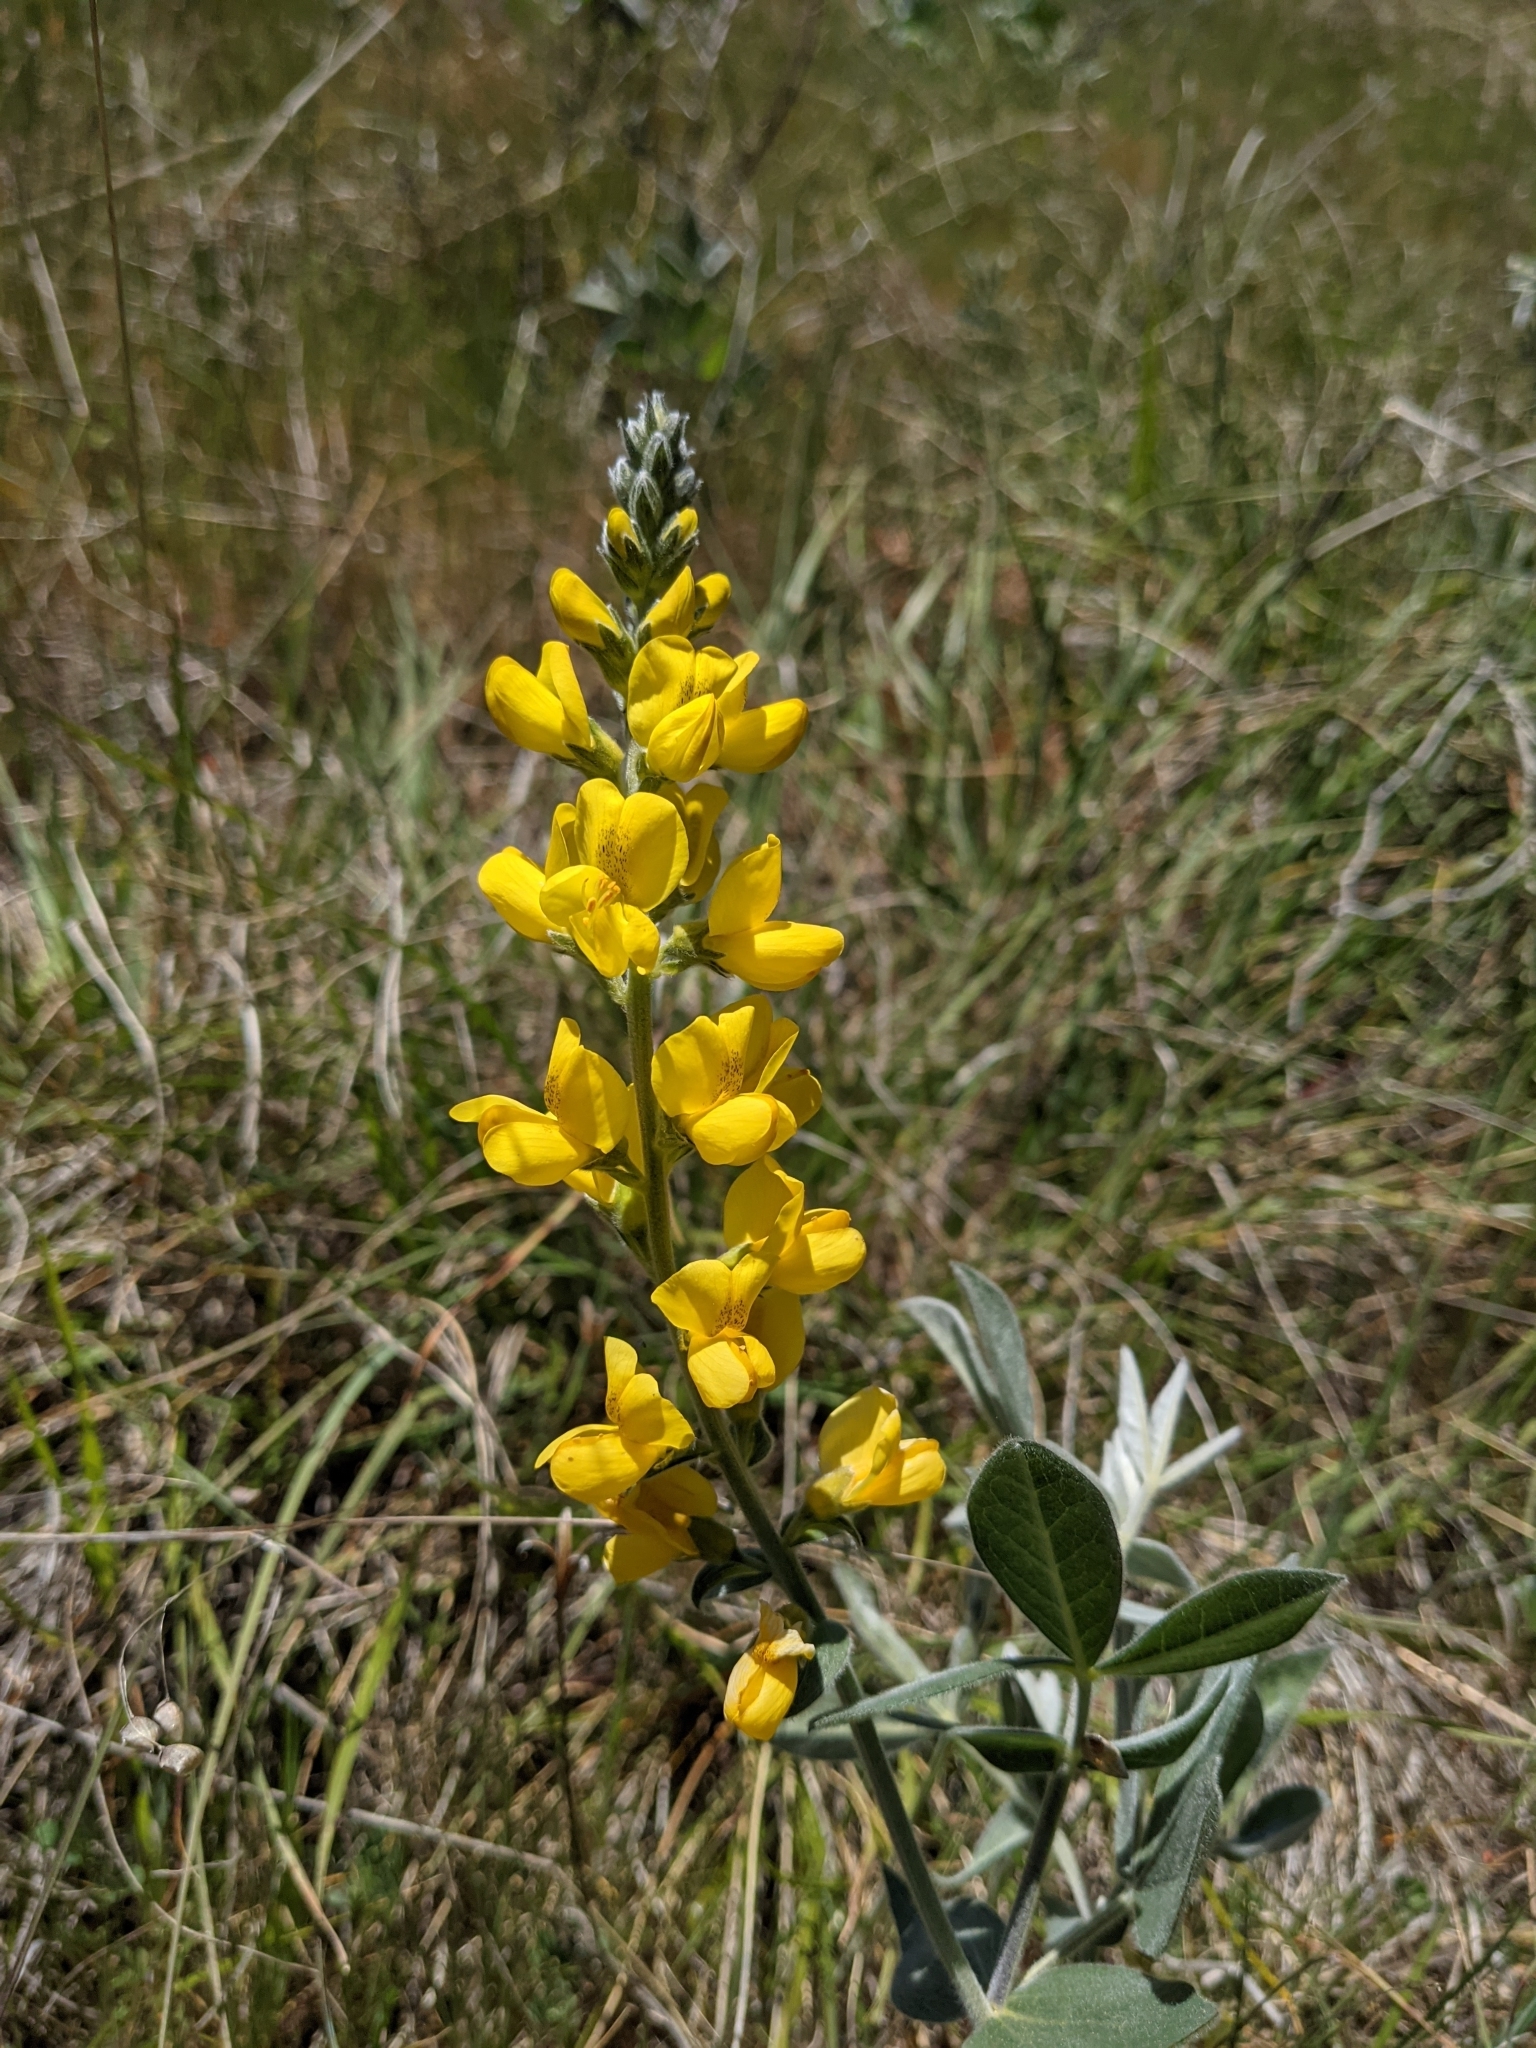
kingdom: Plantae
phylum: Tracheophyta
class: Magnoliopsida
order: Fabales
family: Fabaceae
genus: Thermopsis
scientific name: Thermopsis californica
